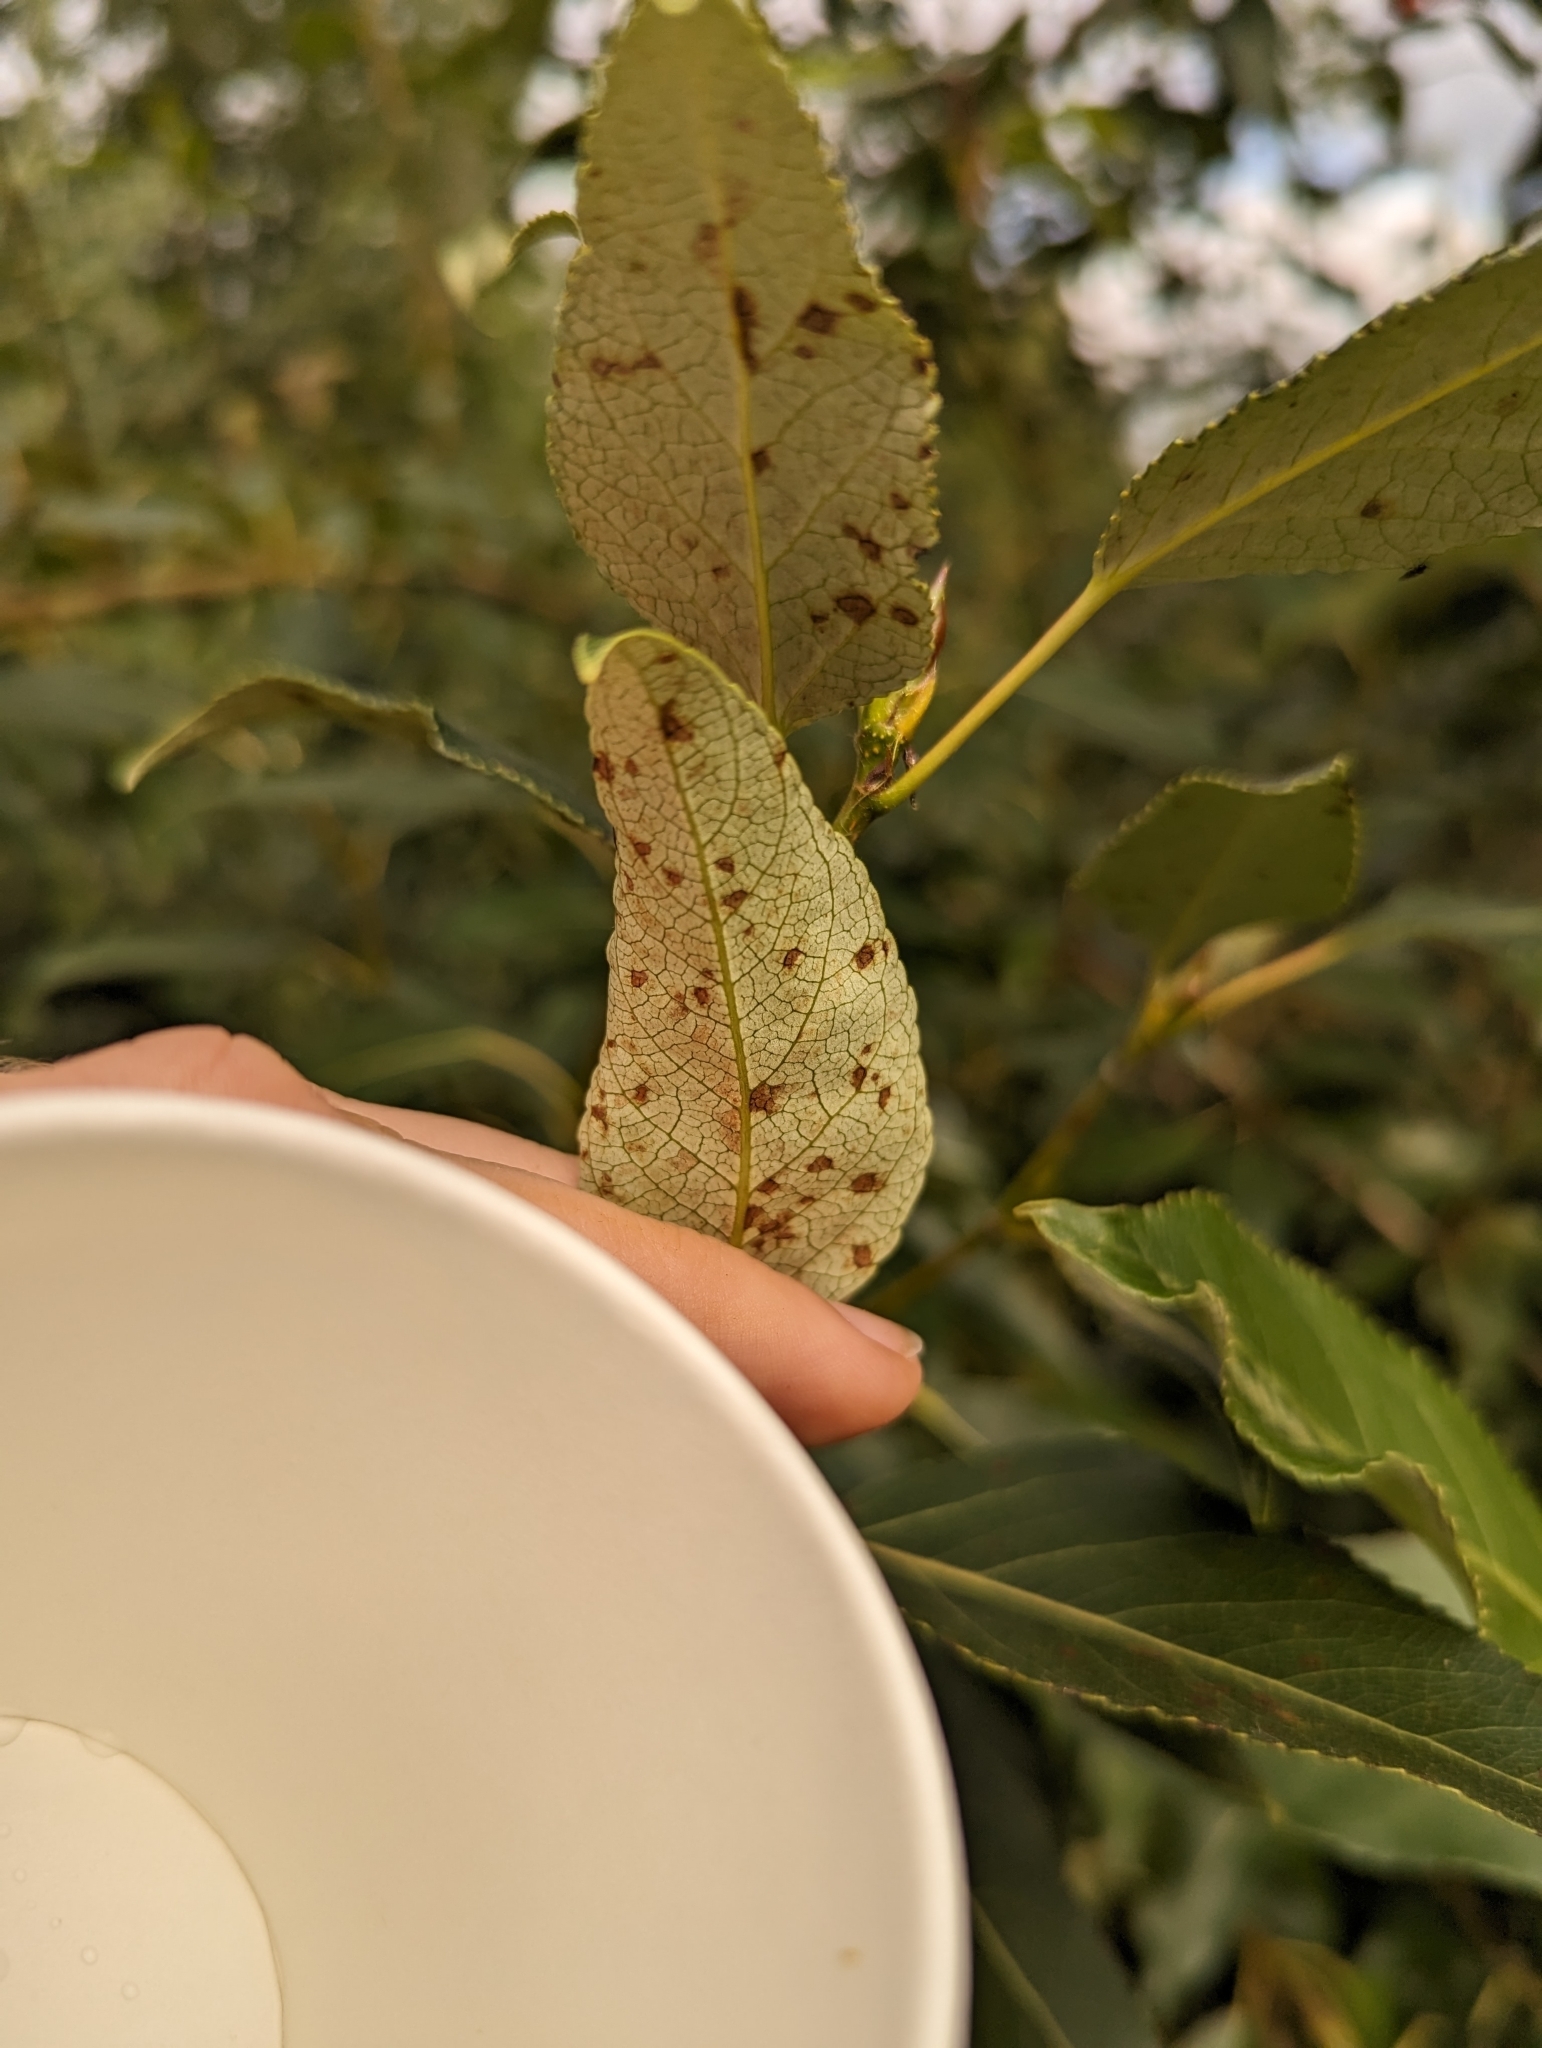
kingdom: Animalia
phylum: Arthropoda
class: Insecta
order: Lepidoptera
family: Gracillariidae
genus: Phyllocnistis
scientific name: Phyllocnistis populiella
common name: Aspen serpentine leafminer moth
